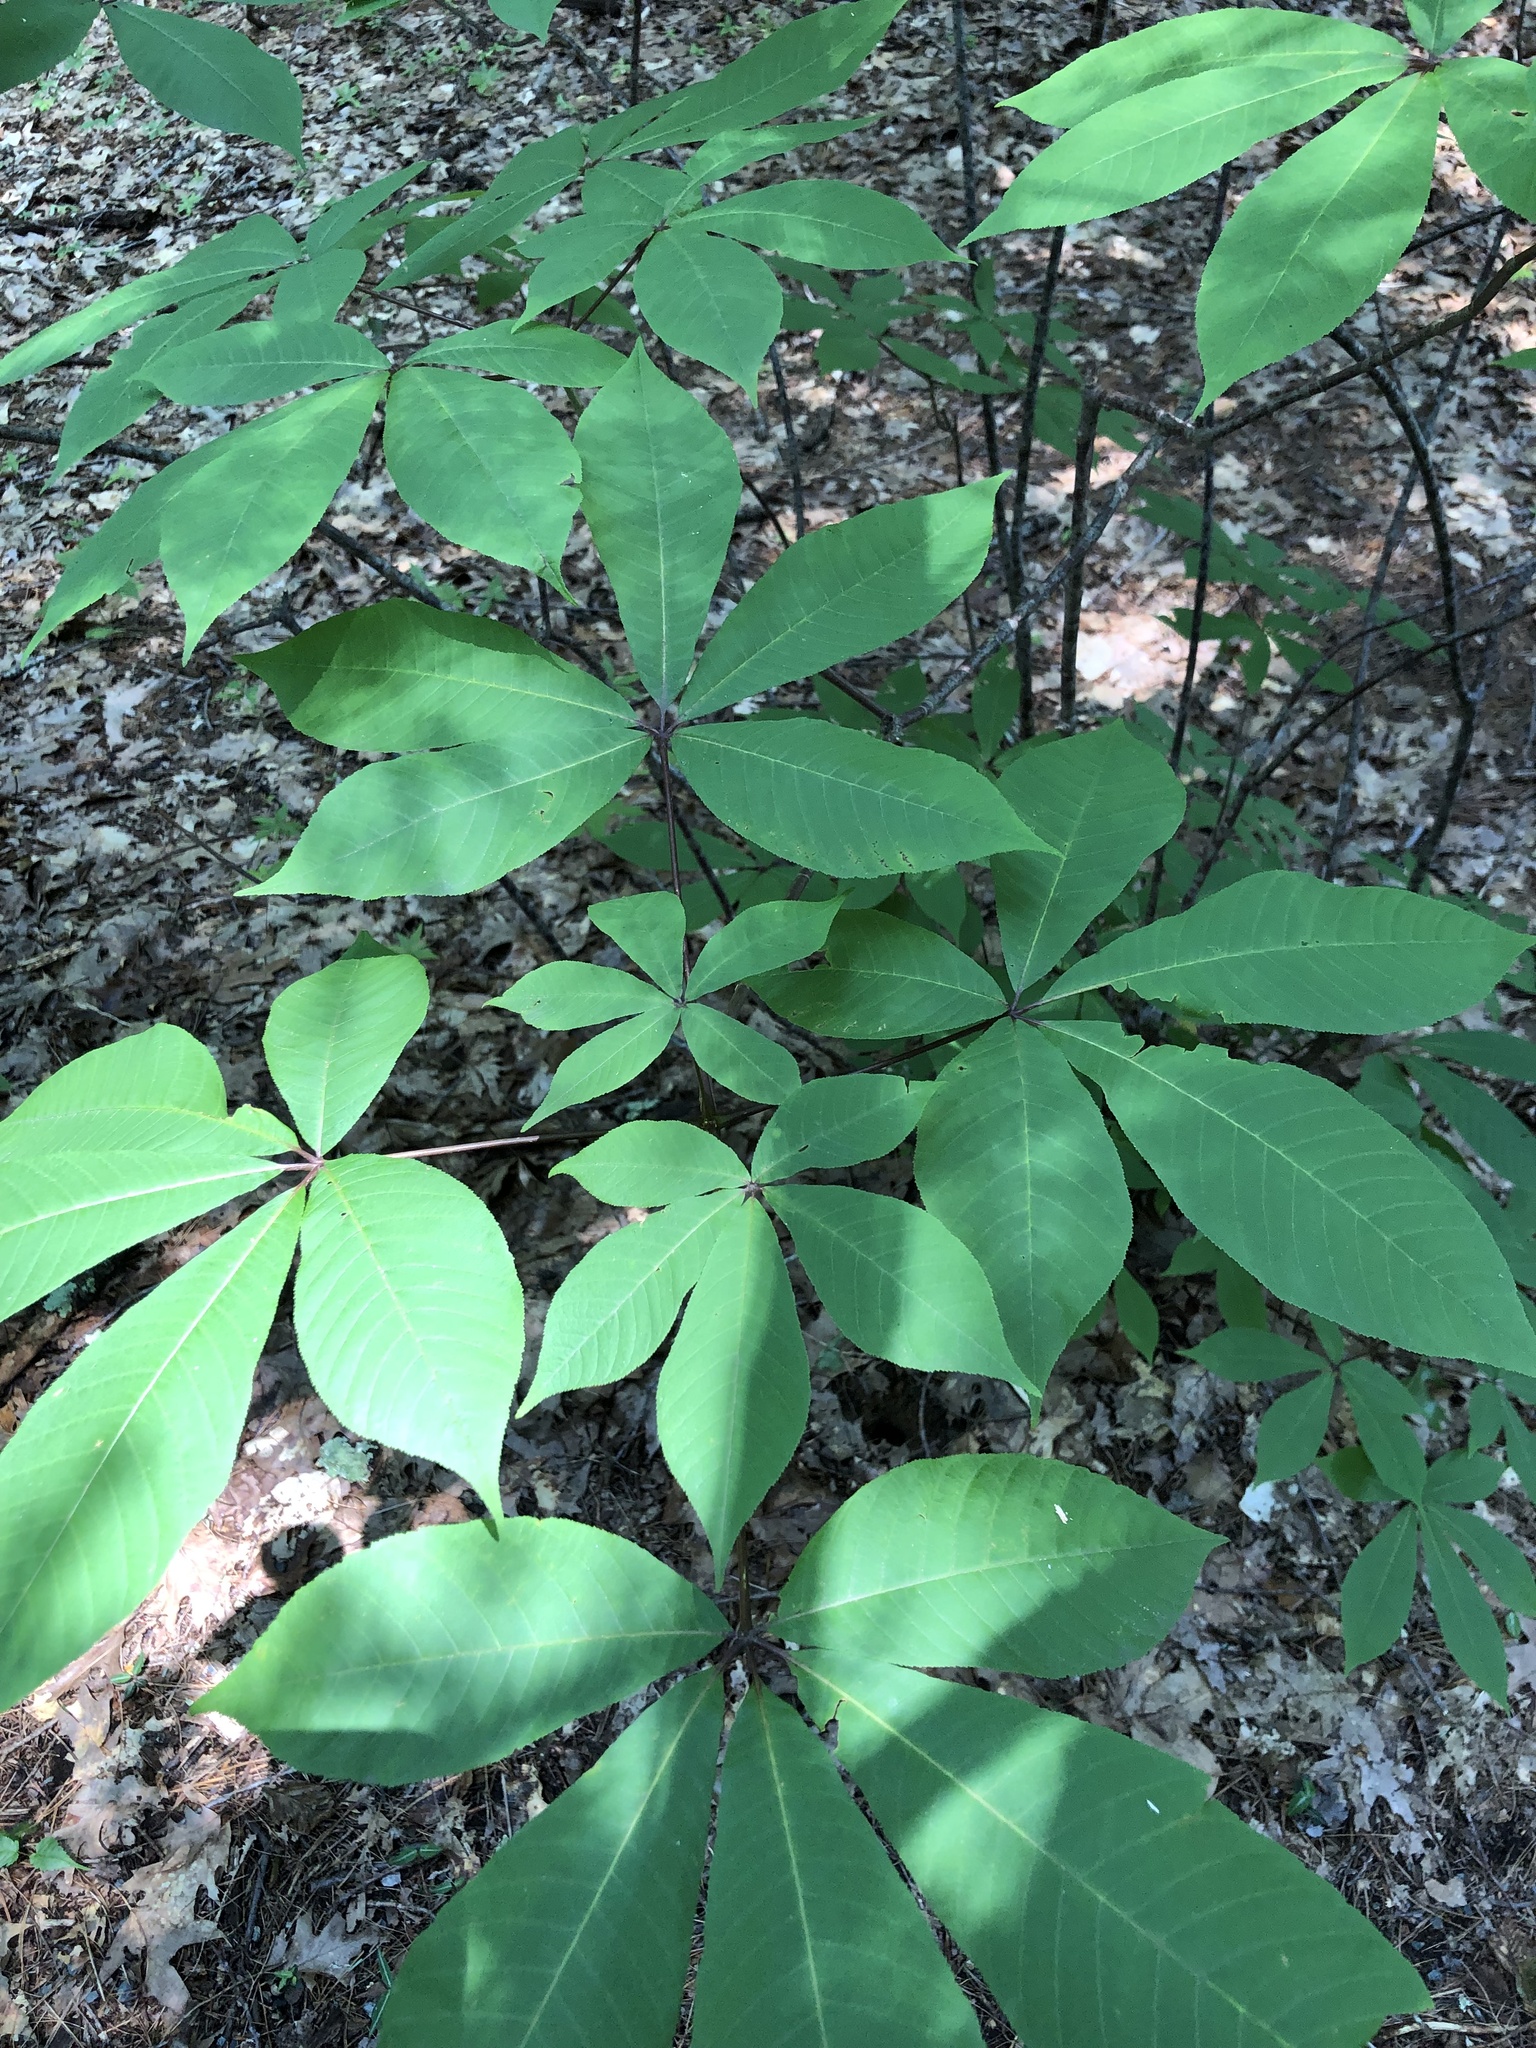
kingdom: Plantae
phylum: Tracheophyta
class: Magnoliopsida
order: Sapindales
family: Sapindaceae
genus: Aesculus
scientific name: Aesculus parviflora
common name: Bottlebrush buckeye
